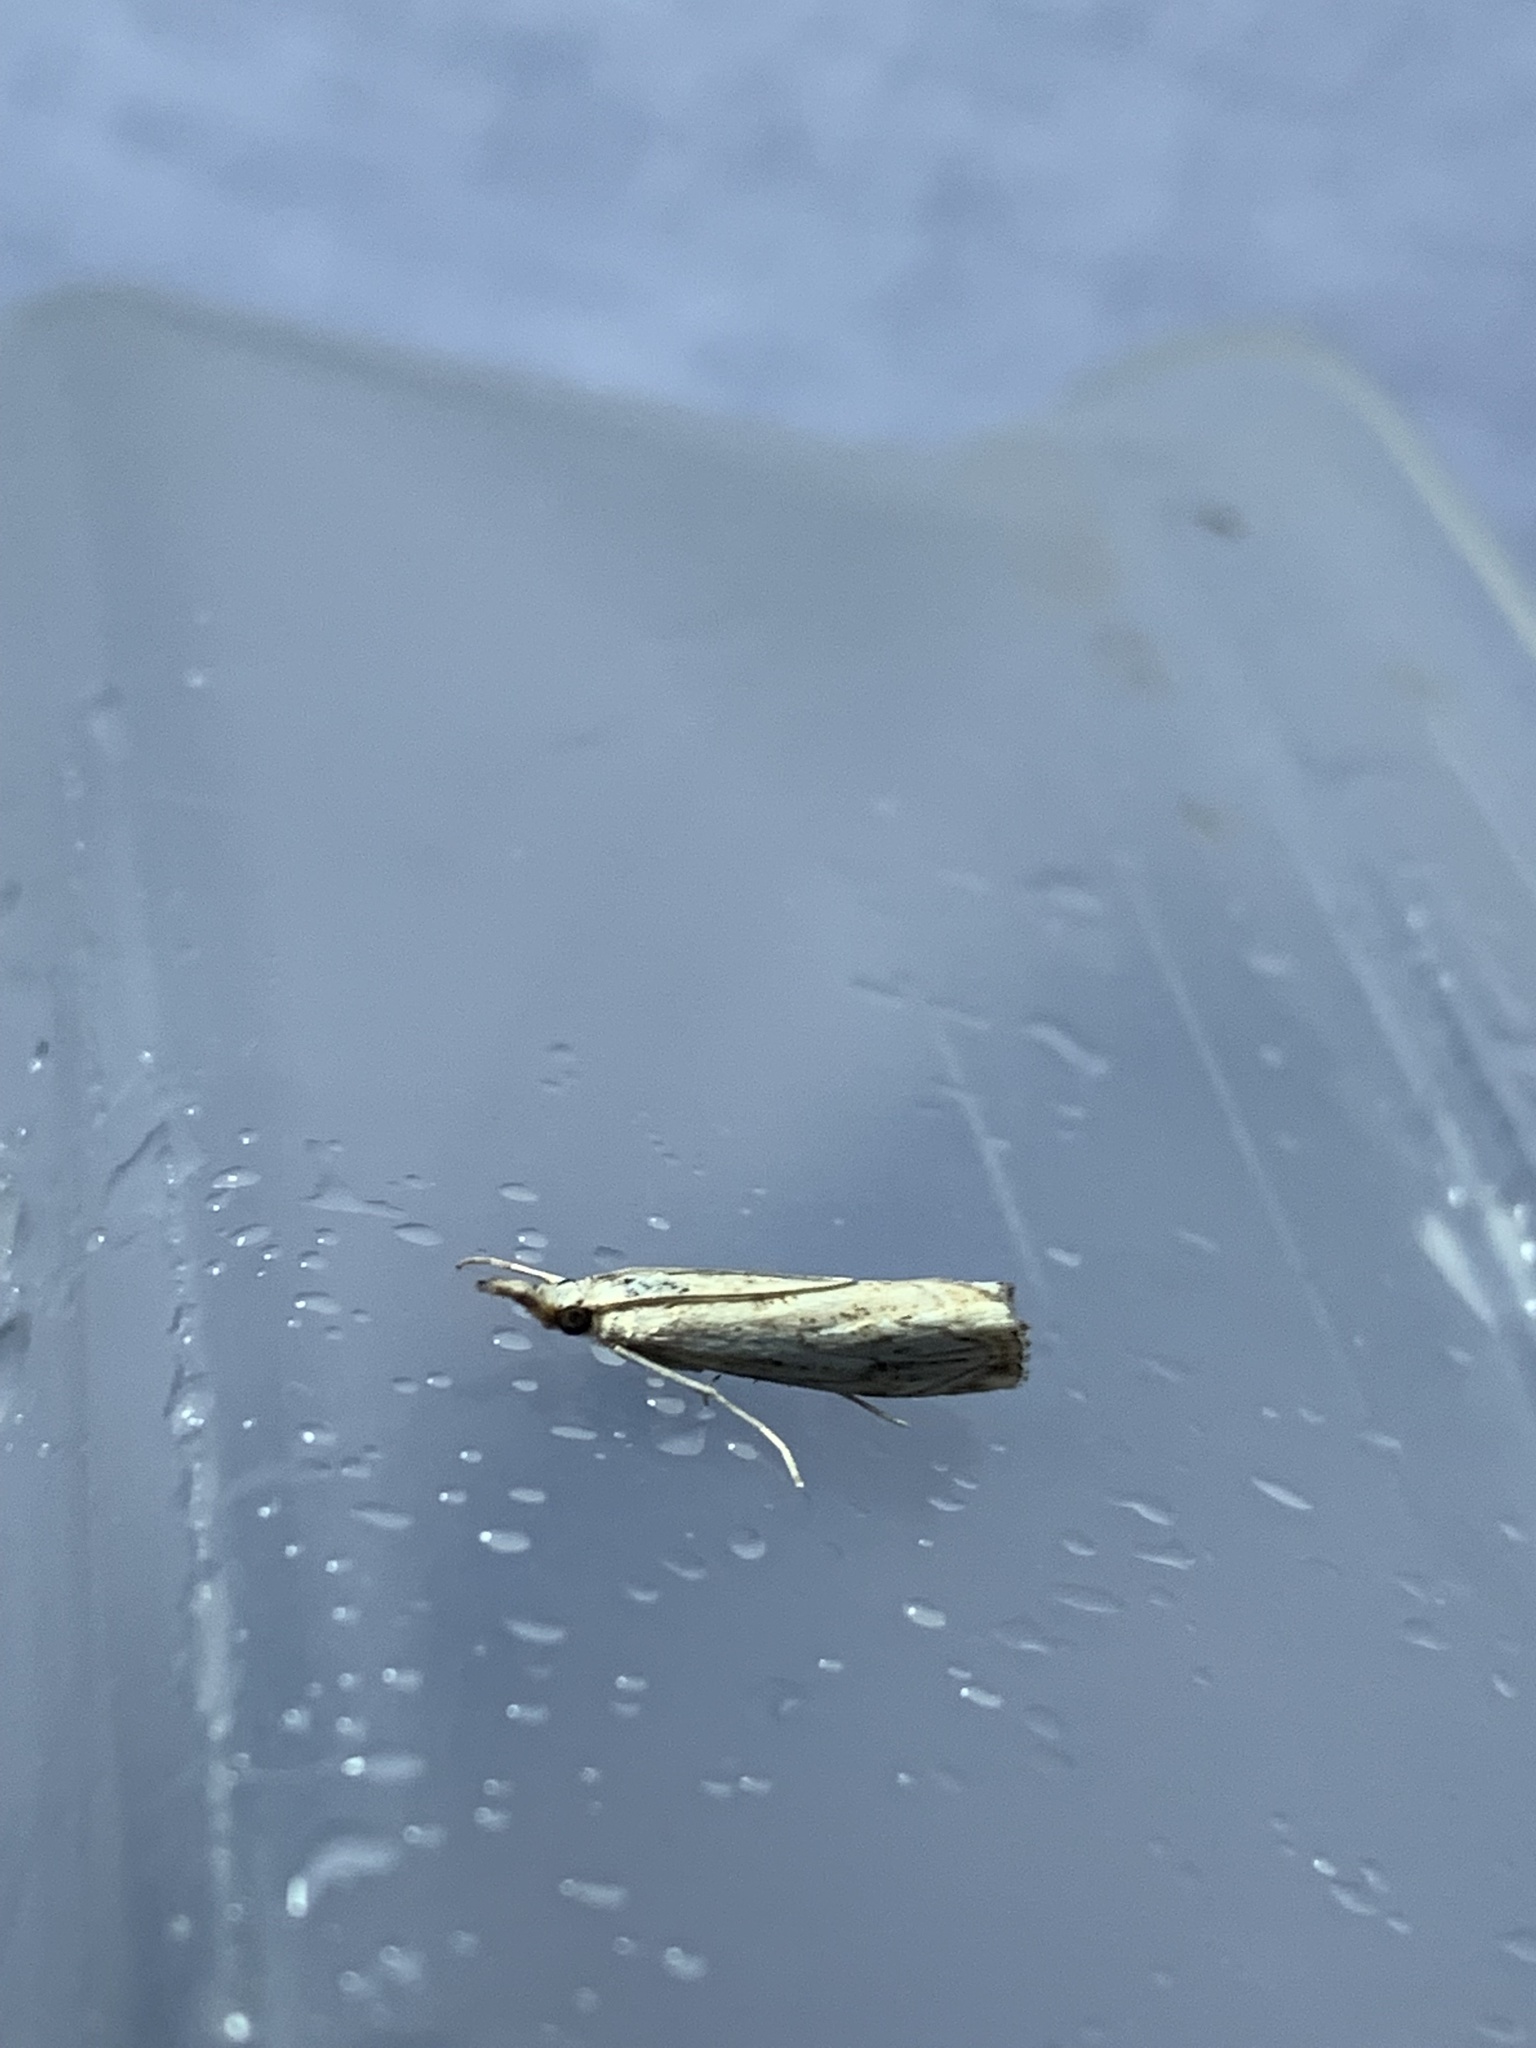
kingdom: Animalia
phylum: Arthropoda
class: Insecta
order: Lepidoptera
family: Crambidae
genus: Agriphila
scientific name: Agriphila inquinatella
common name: Barred grass-veneer
